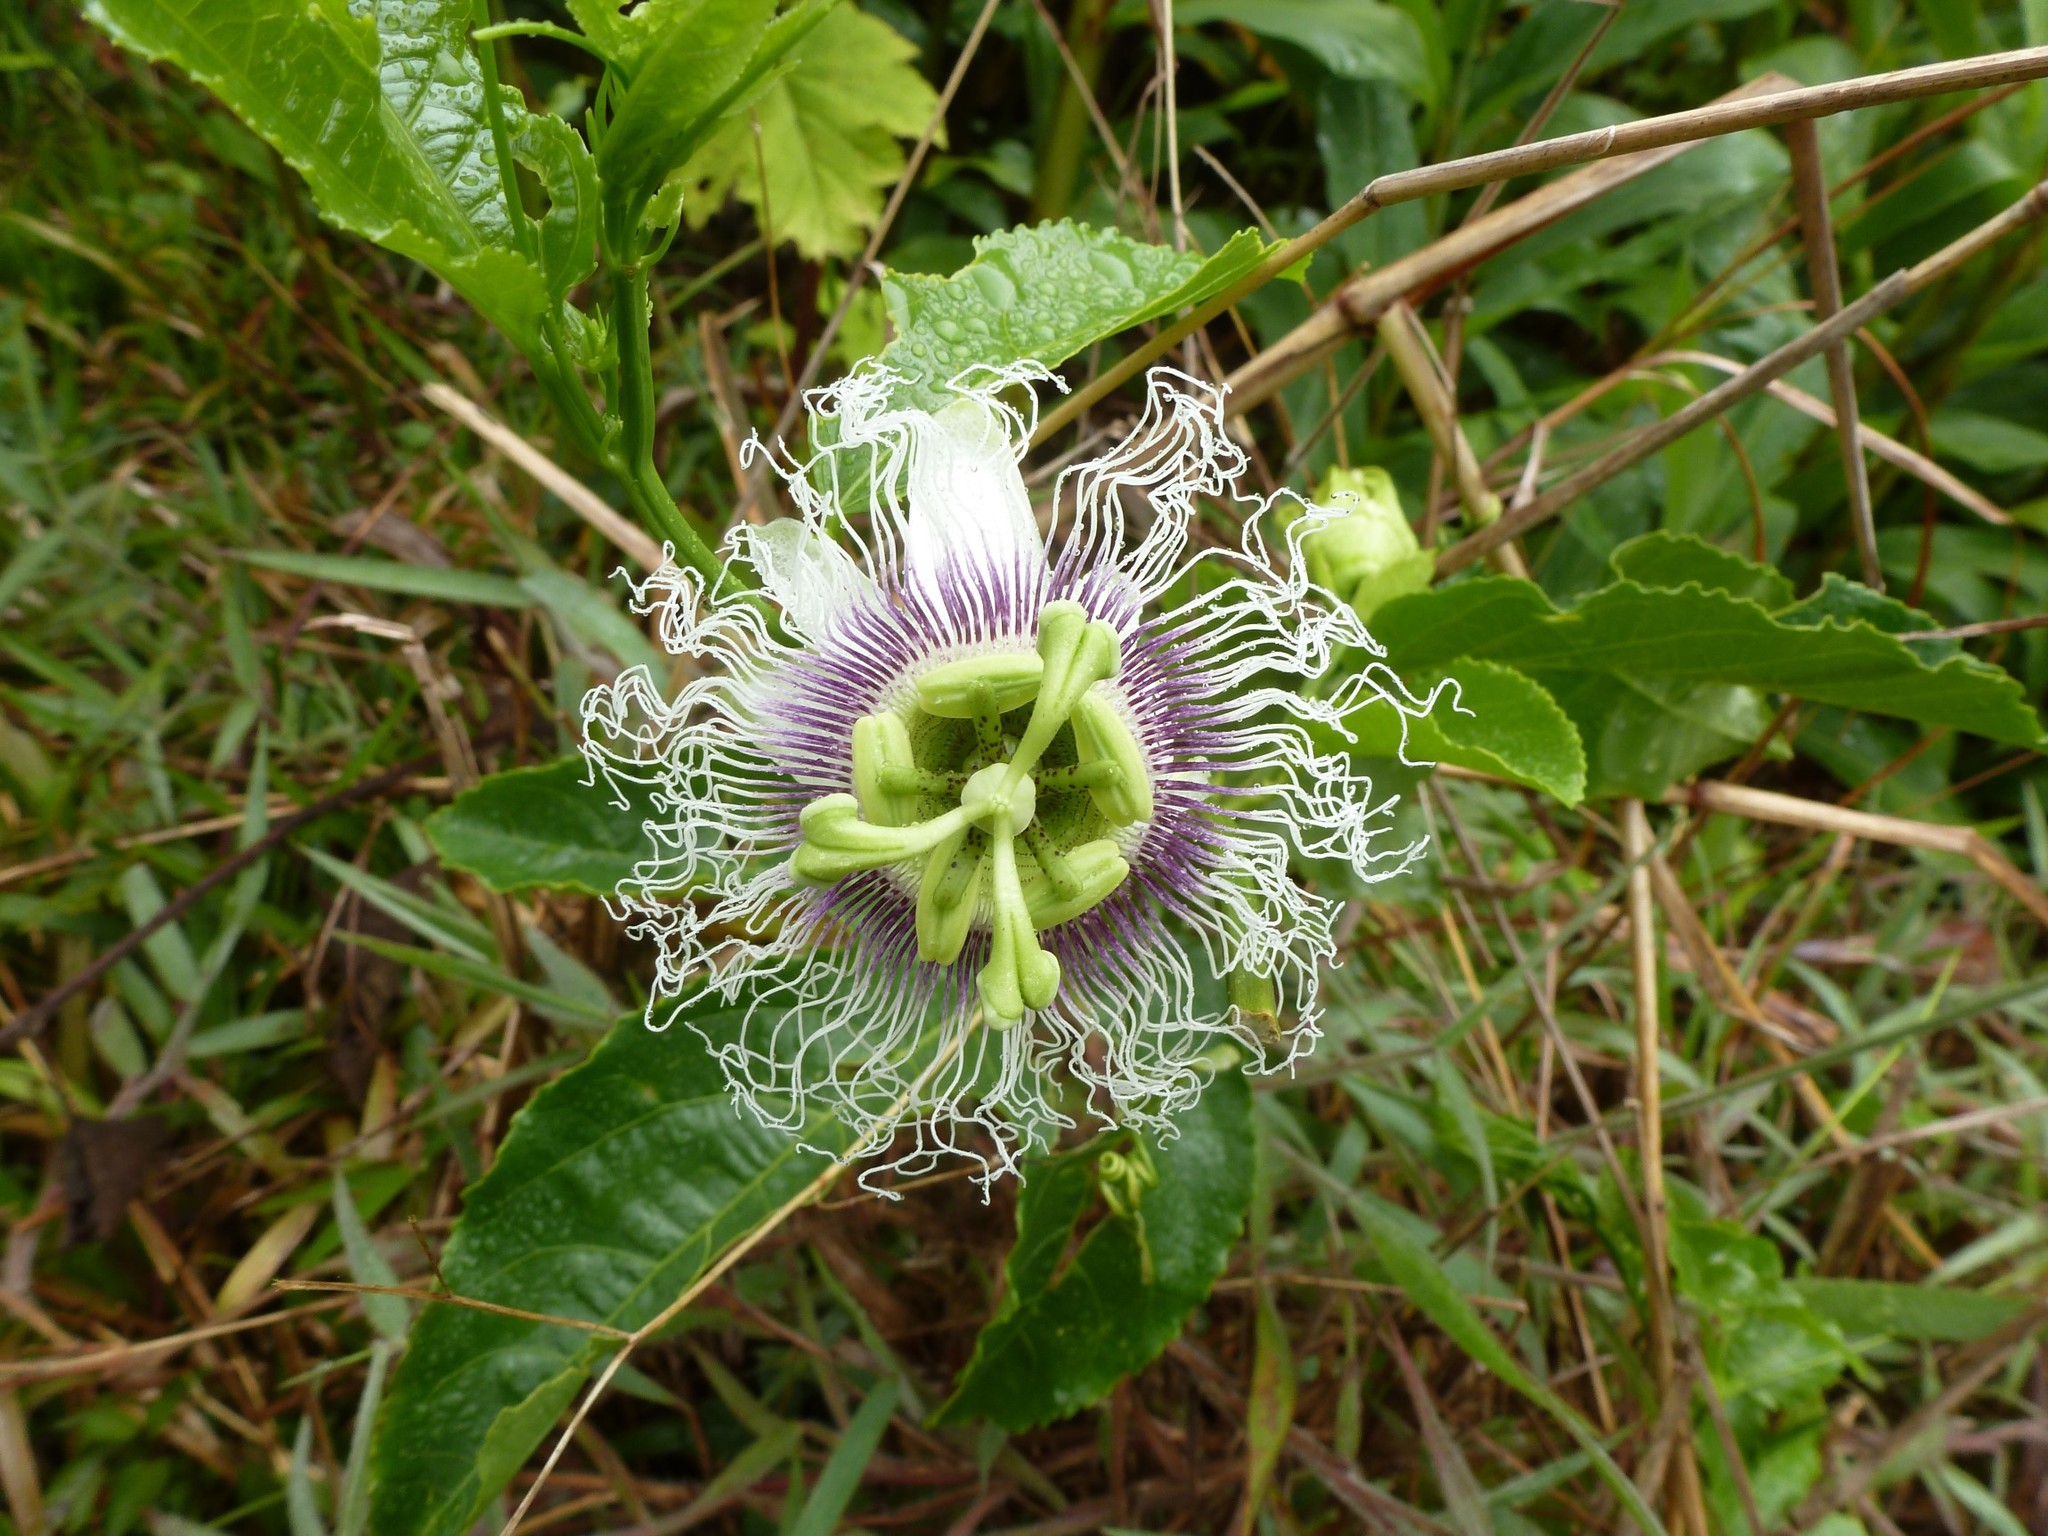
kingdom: Plantae
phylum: Tracheophyta
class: Magnoliopsida
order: Malpighiales
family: Passifloraceae
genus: Passiflora
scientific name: Passiflora edulis
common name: Purple granadilla
